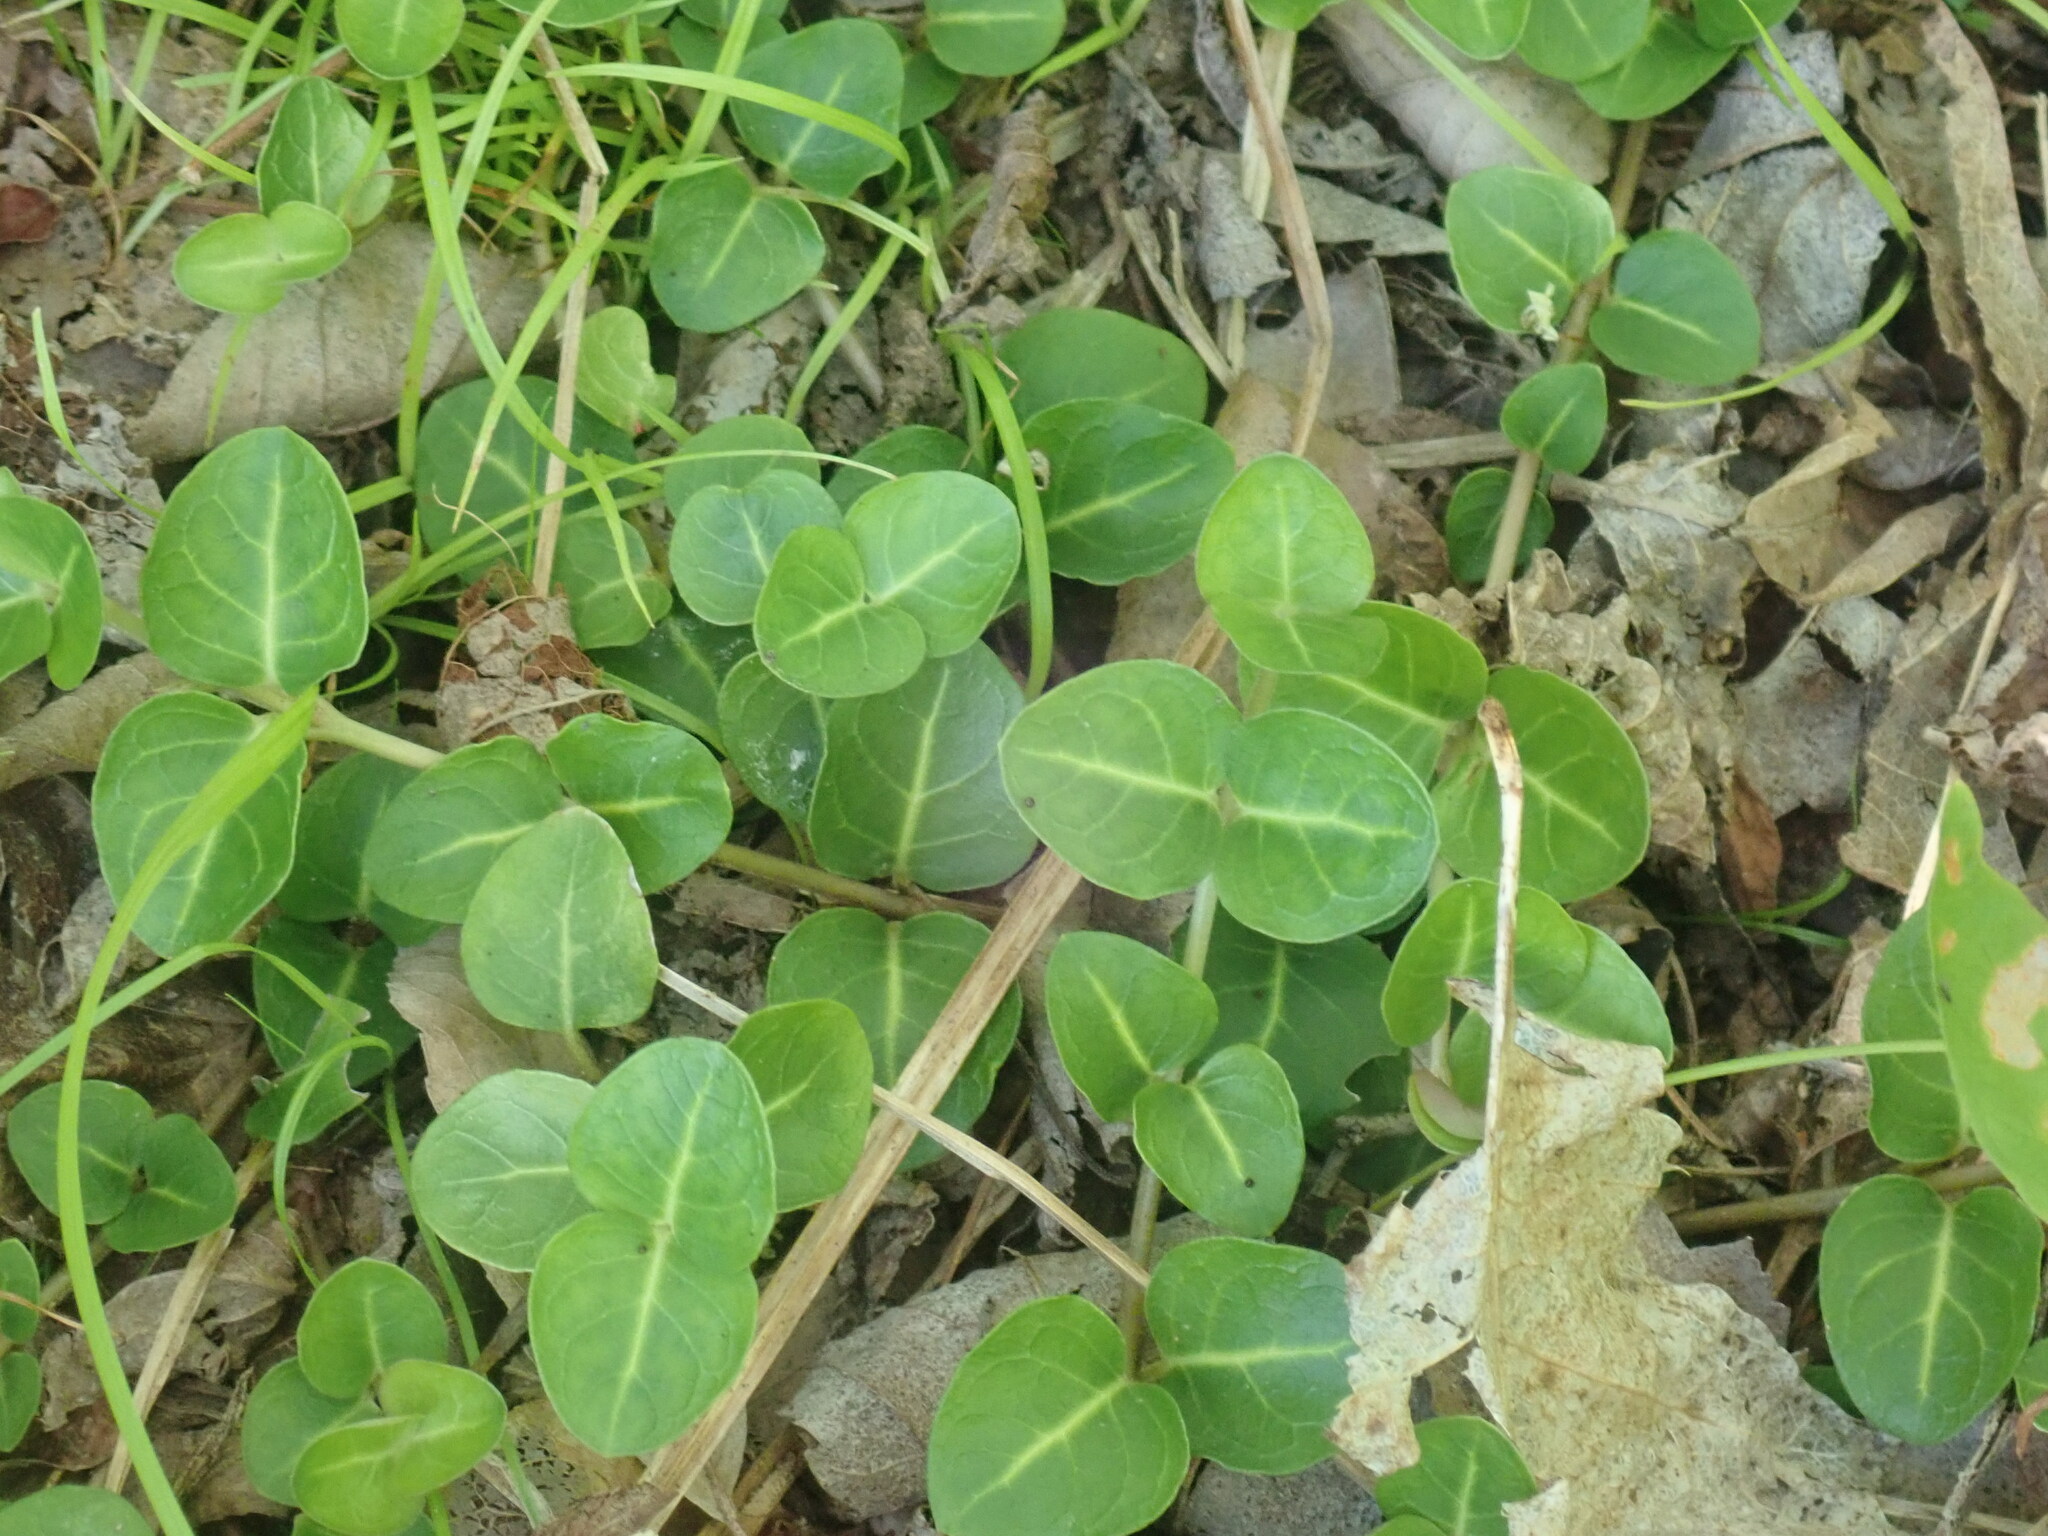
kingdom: Plantae
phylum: Tracheophyta
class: Magnoliopsida
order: Gentianales
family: Rubiaceae
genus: Mitchella
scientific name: Mitchella repens
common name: Partridge-berry
